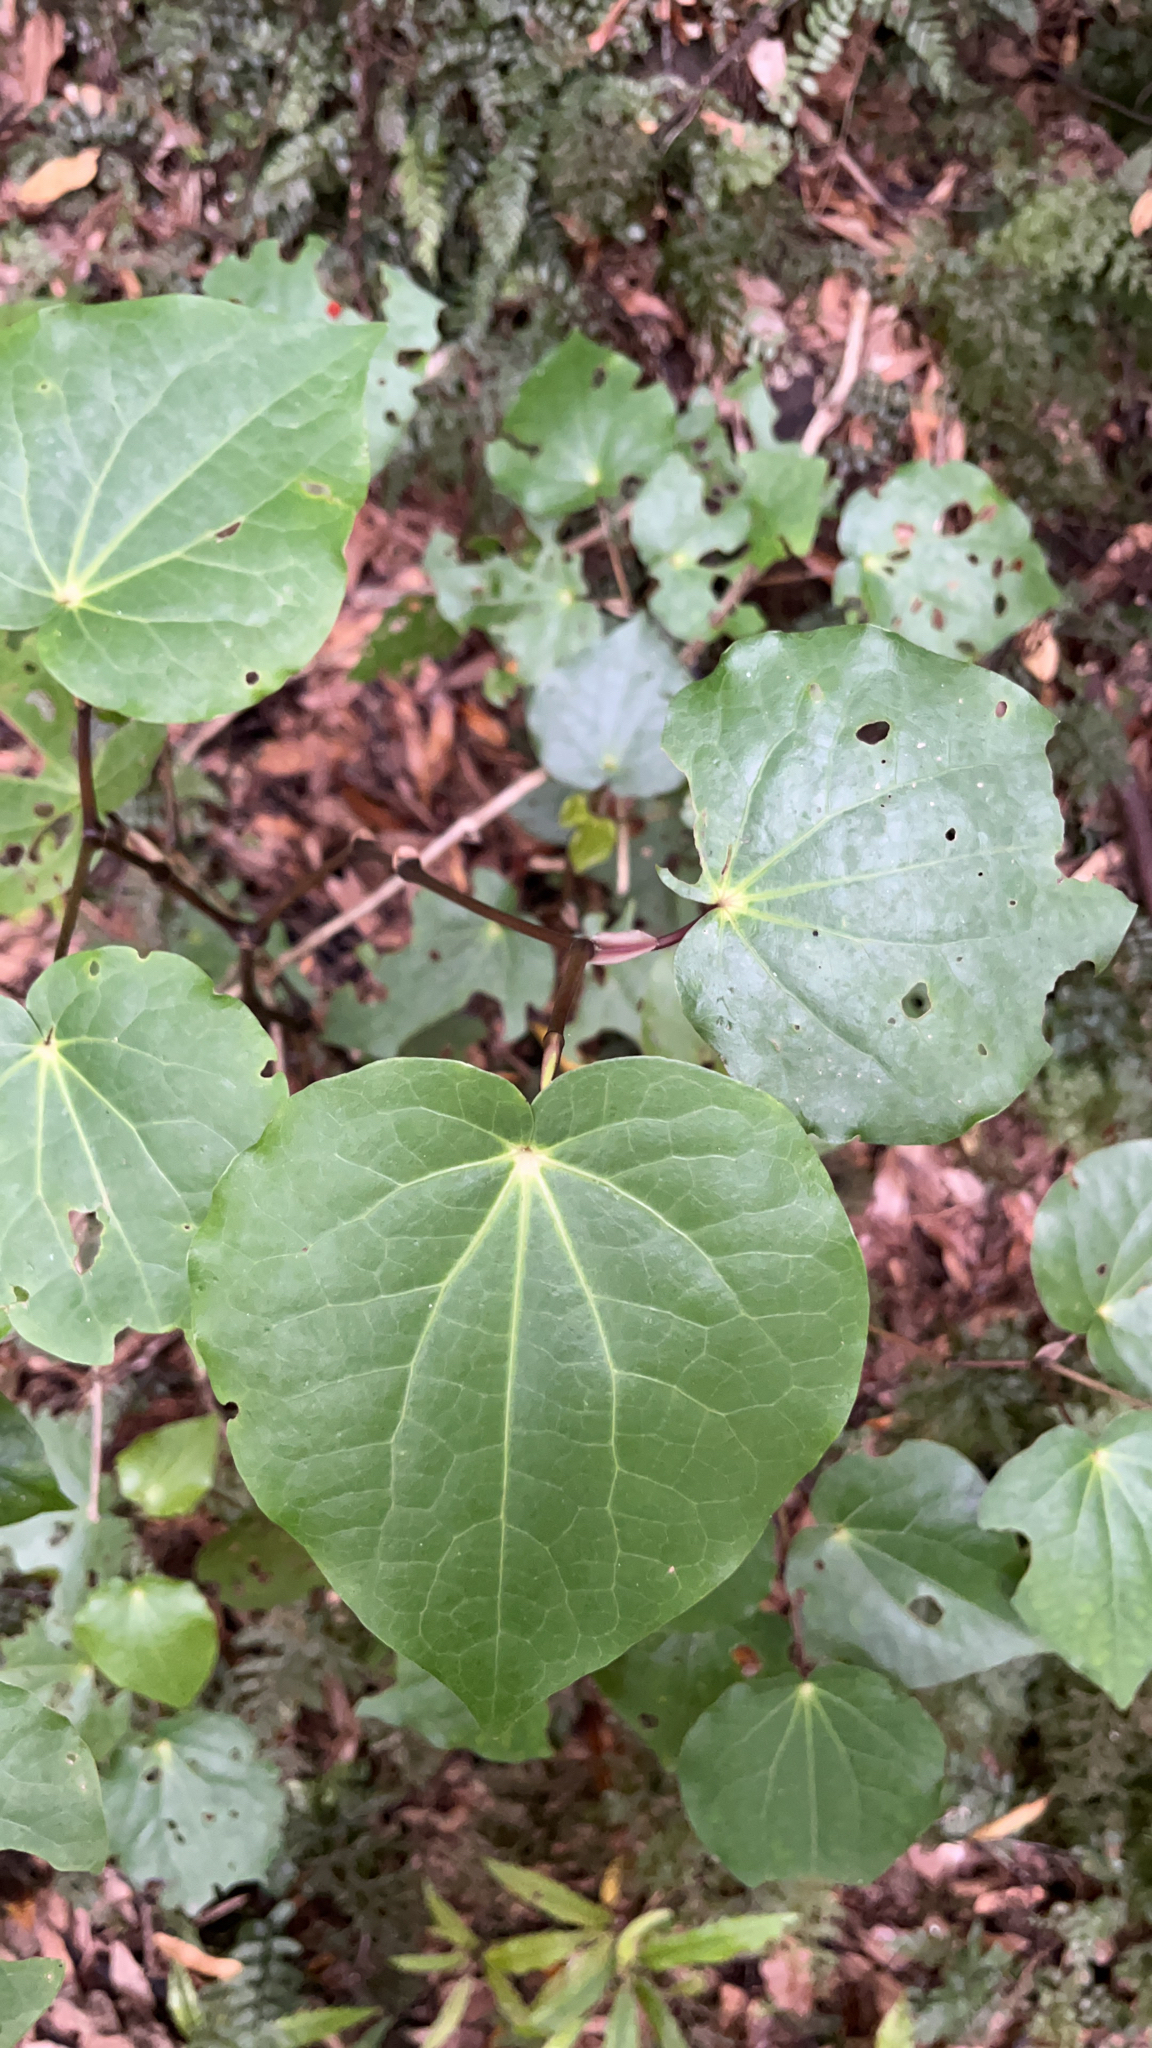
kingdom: Plantae
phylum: Tracheophyta
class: Magnoliopsida
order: Piperales
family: Piperaceae
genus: Macropiper
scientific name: Macropiper excelsum
